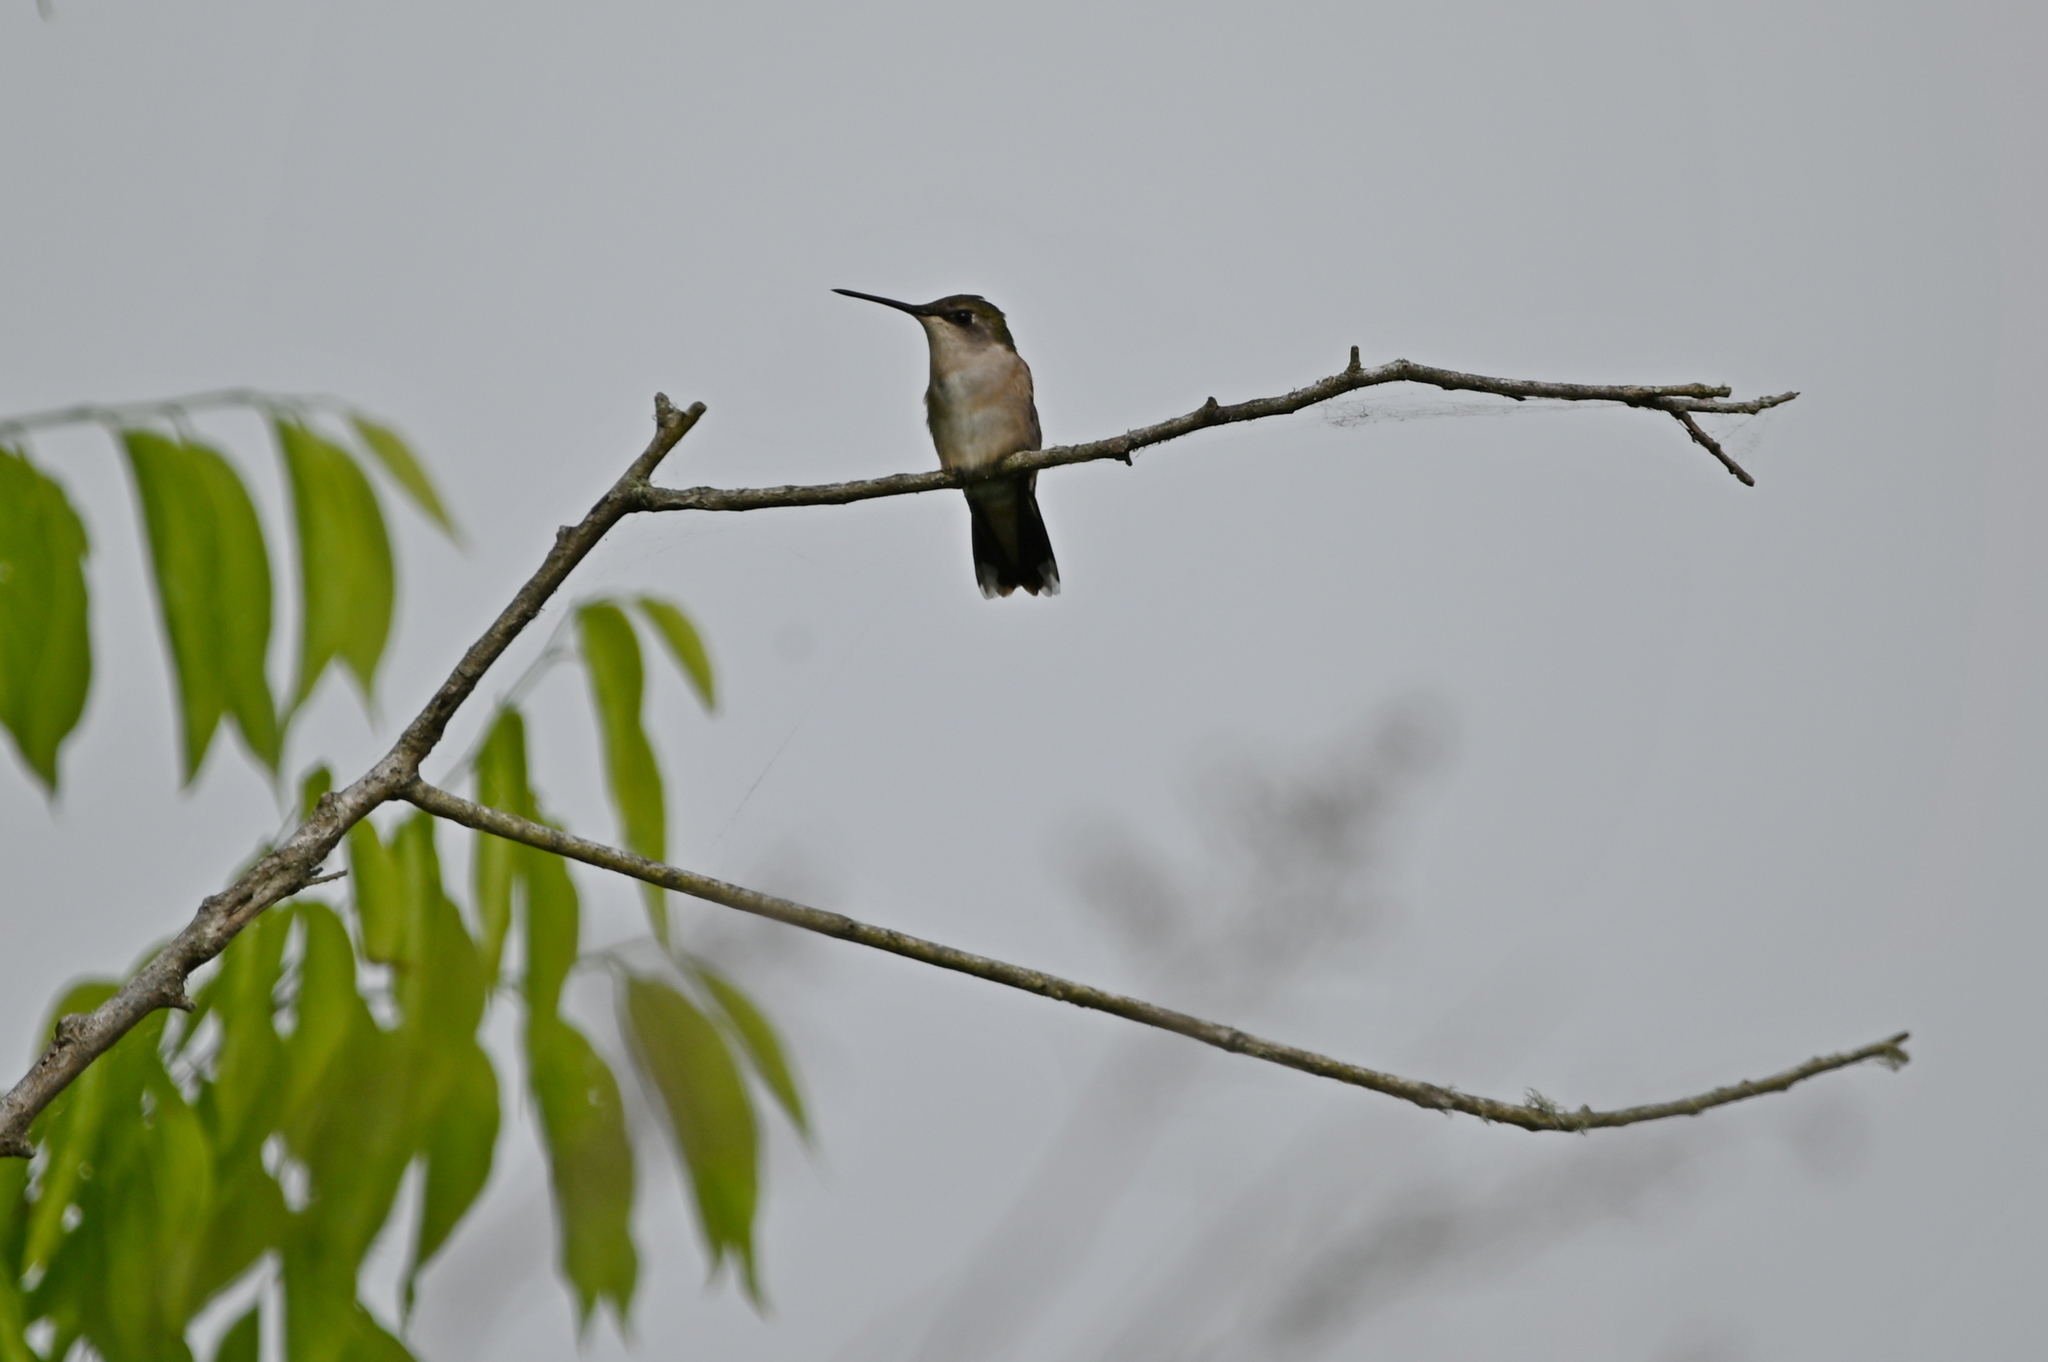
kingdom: Animalia
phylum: Chordata
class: Aves
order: Apodiformes
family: Trochilidae
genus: Archilochus
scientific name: Archilochus colubris
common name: Ruby-throated hummingbird
